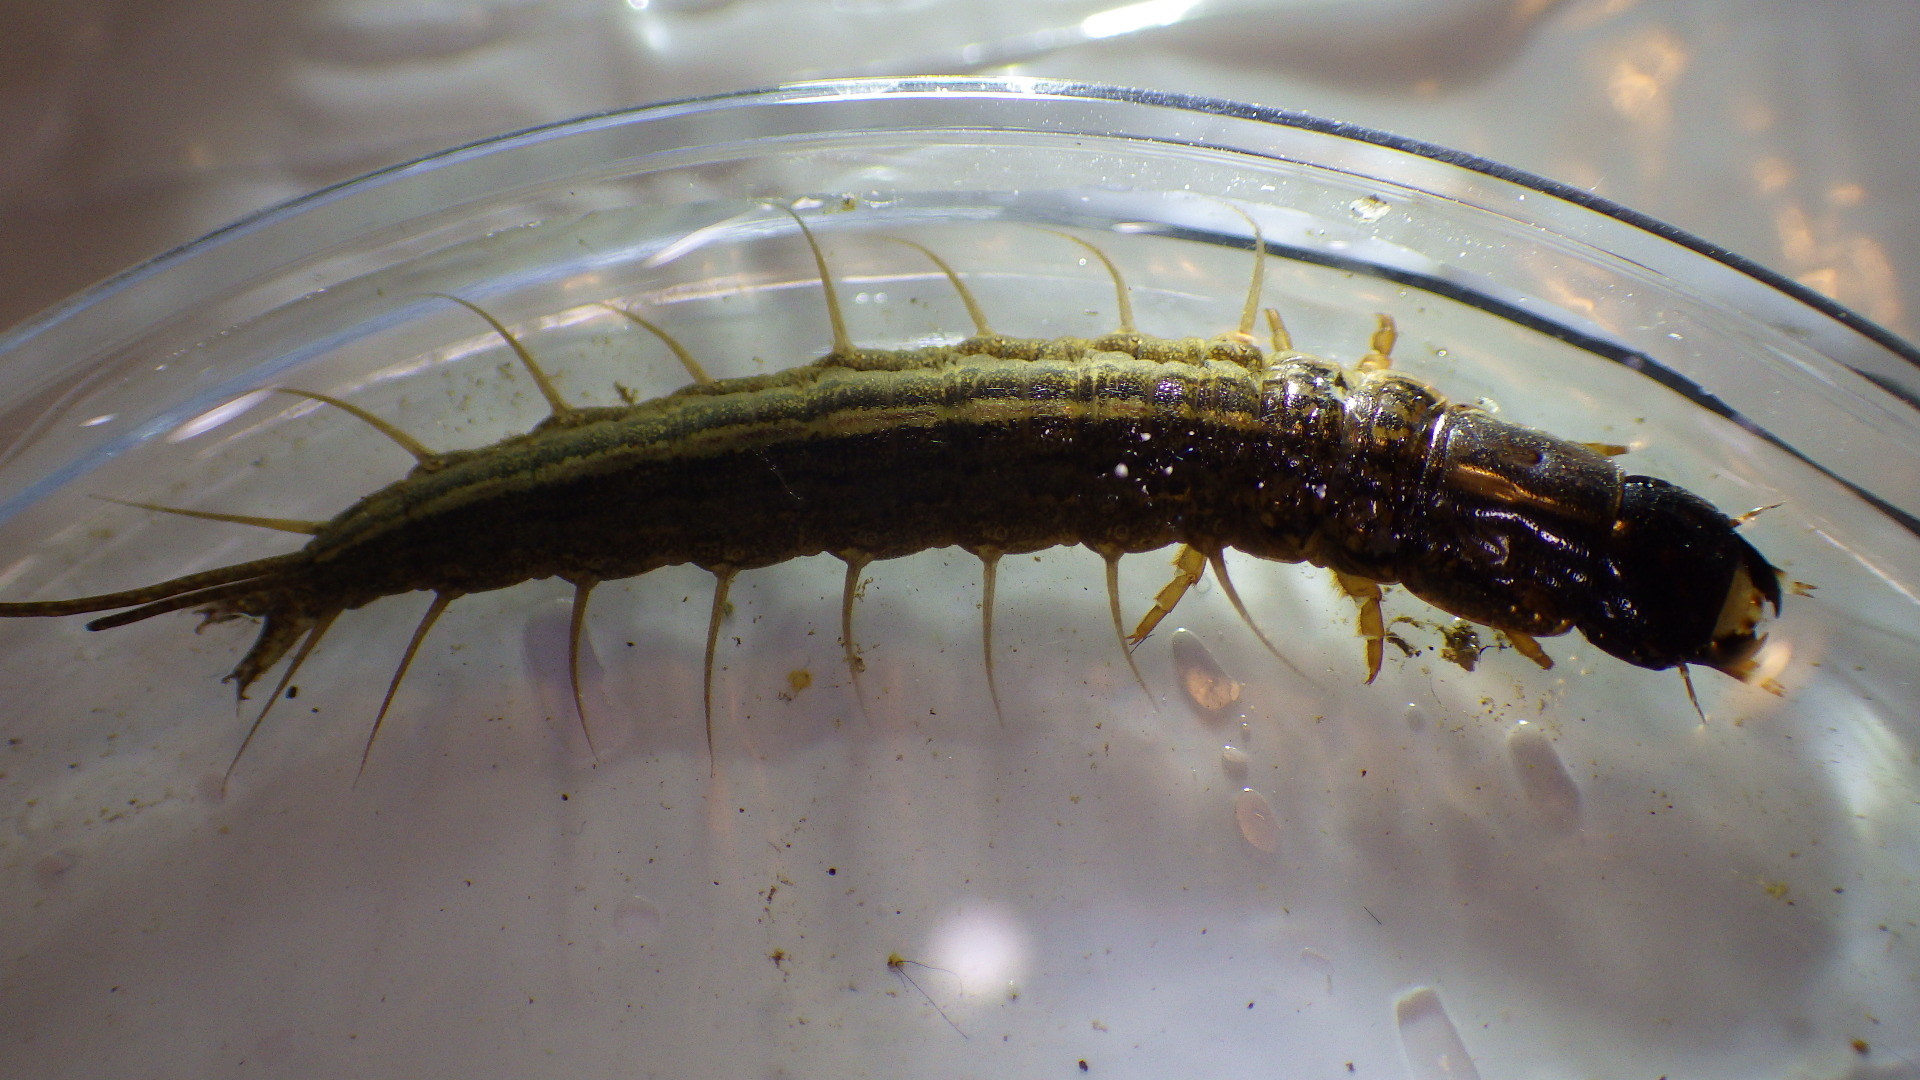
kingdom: Animalia
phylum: Arthropoda
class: Insecta
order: Megaloptera
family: Corydalidae
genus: Chauliodes
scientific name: Chauliodes pectinicornis
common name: Summer fishfly
